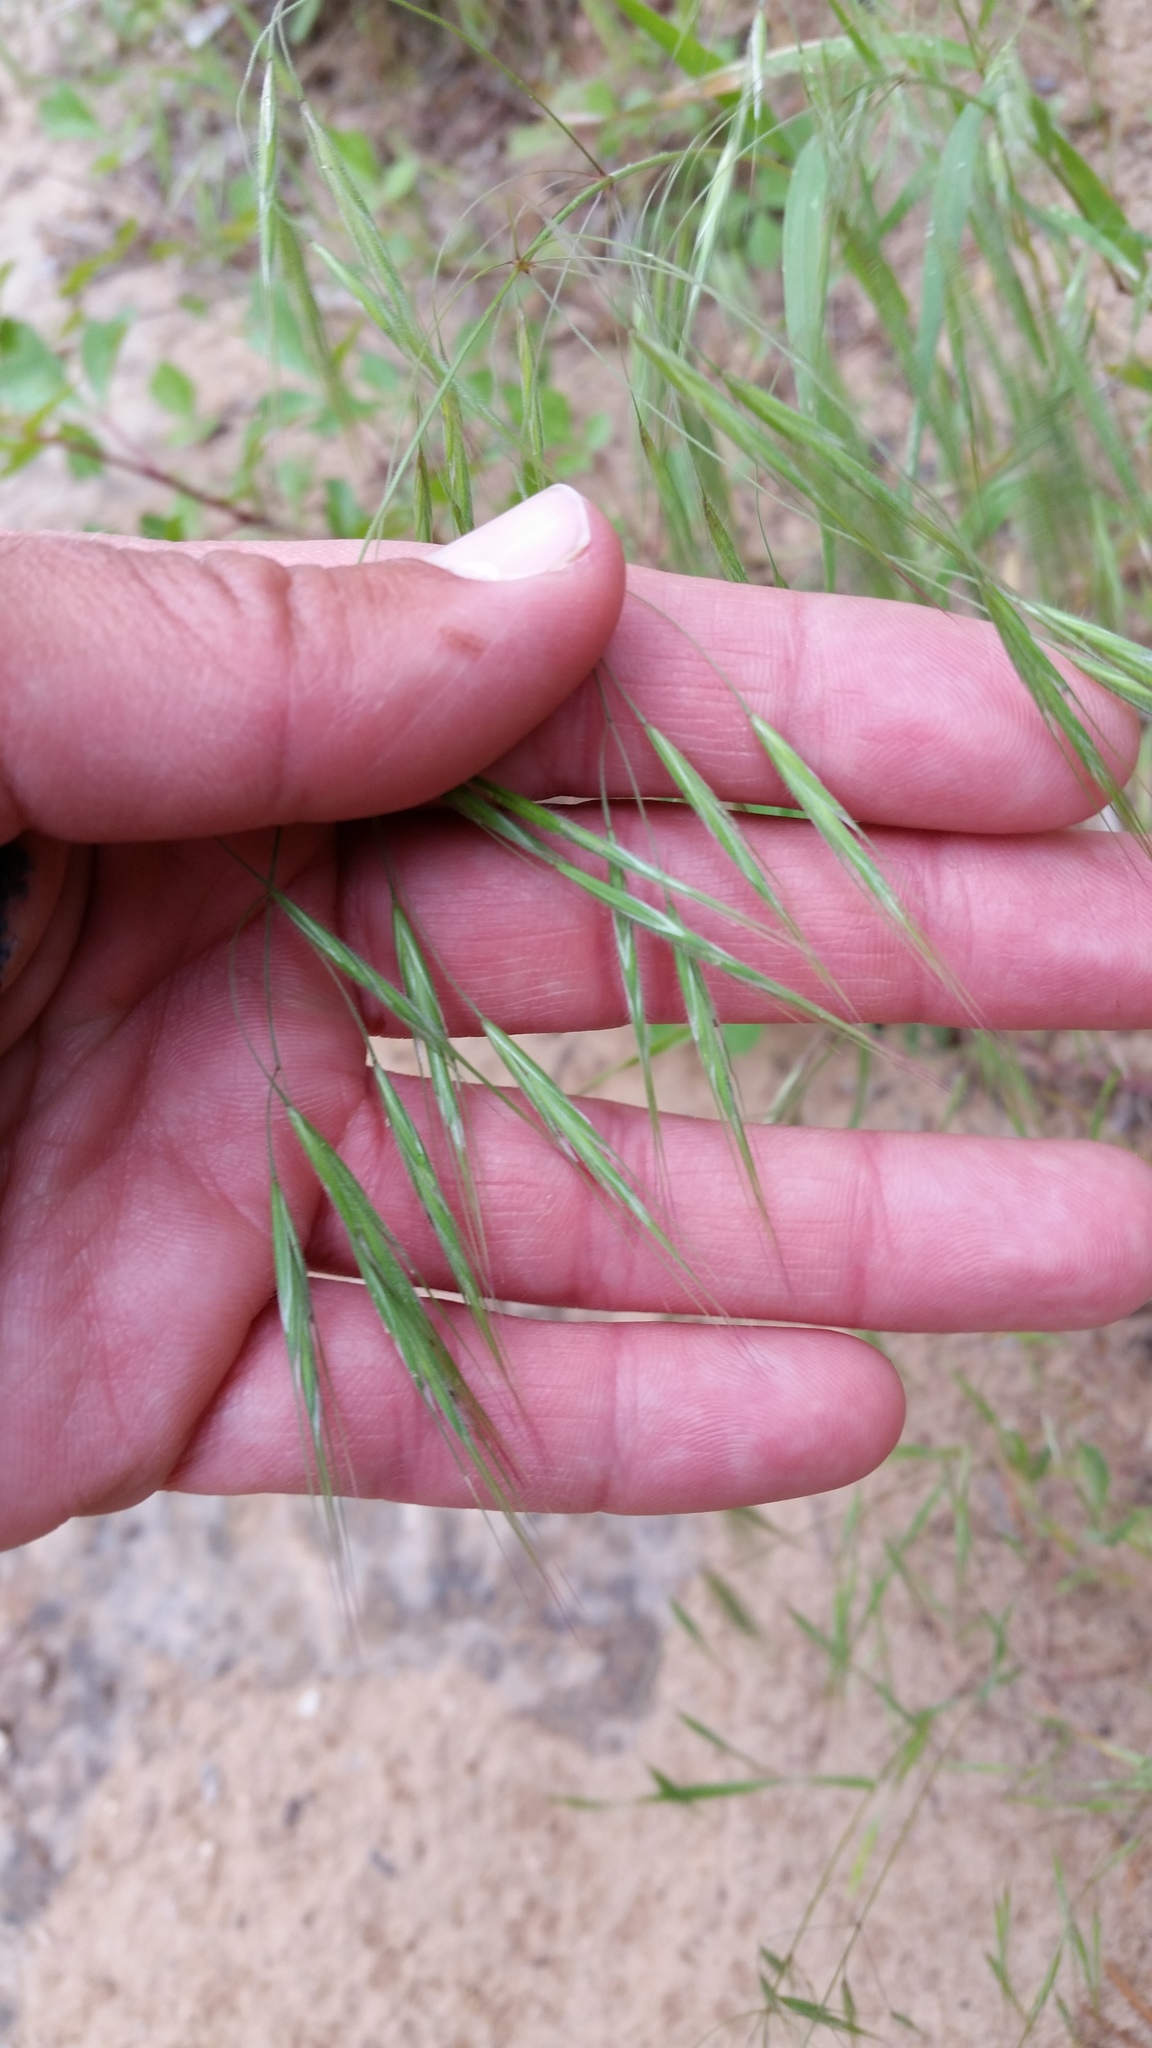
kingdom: Plantae
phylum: Tracheophyta
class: Liliopsida
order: Poales
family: Poaceae
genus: Bromus
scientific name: Bromus tectorum
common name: Cheatgrass
